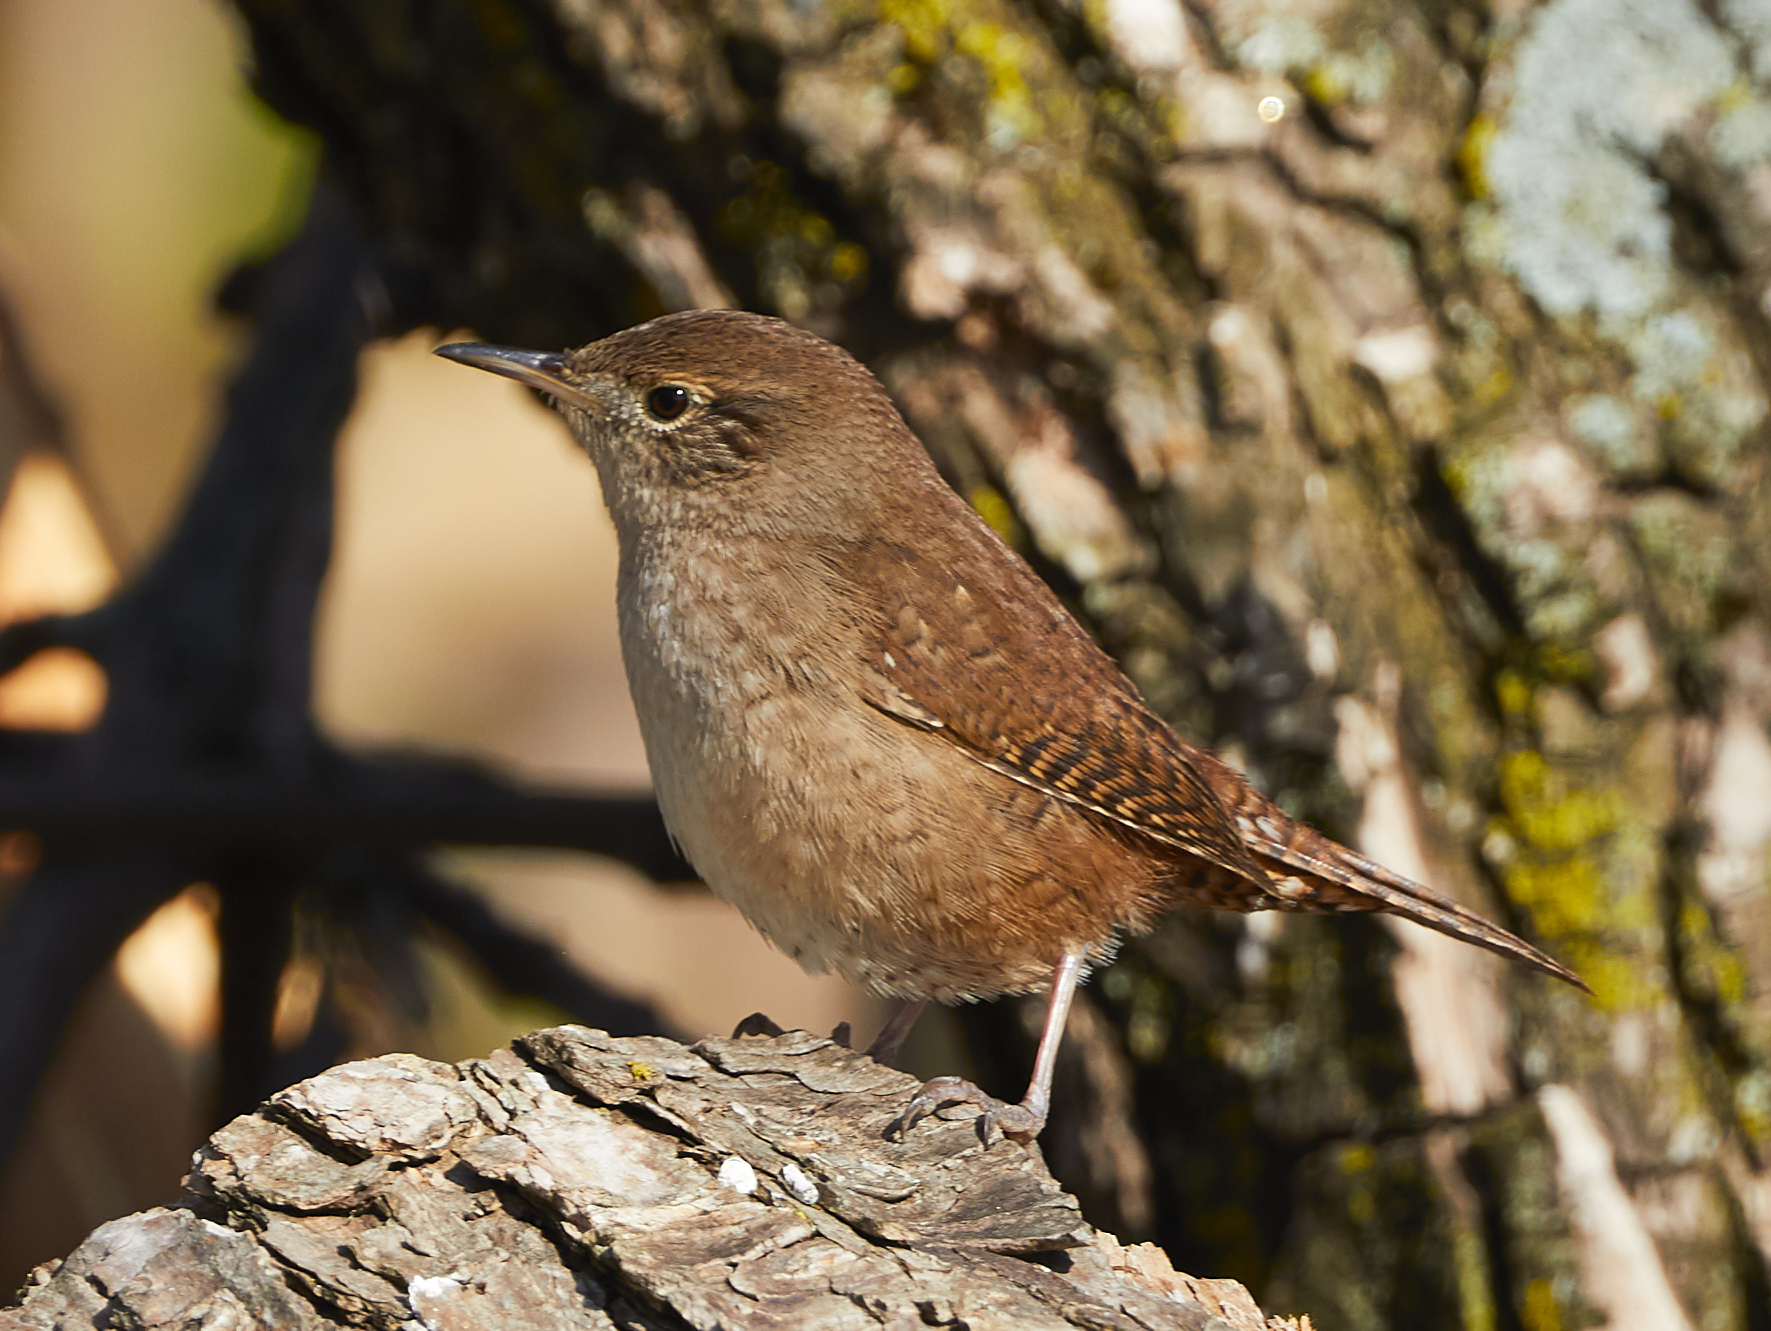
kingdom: Animalia
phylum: Chordata
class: Aves
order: Passeriformes
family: Troglodytidae
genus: Troglodytes
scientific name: Troglodytes aedon
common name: House wren
